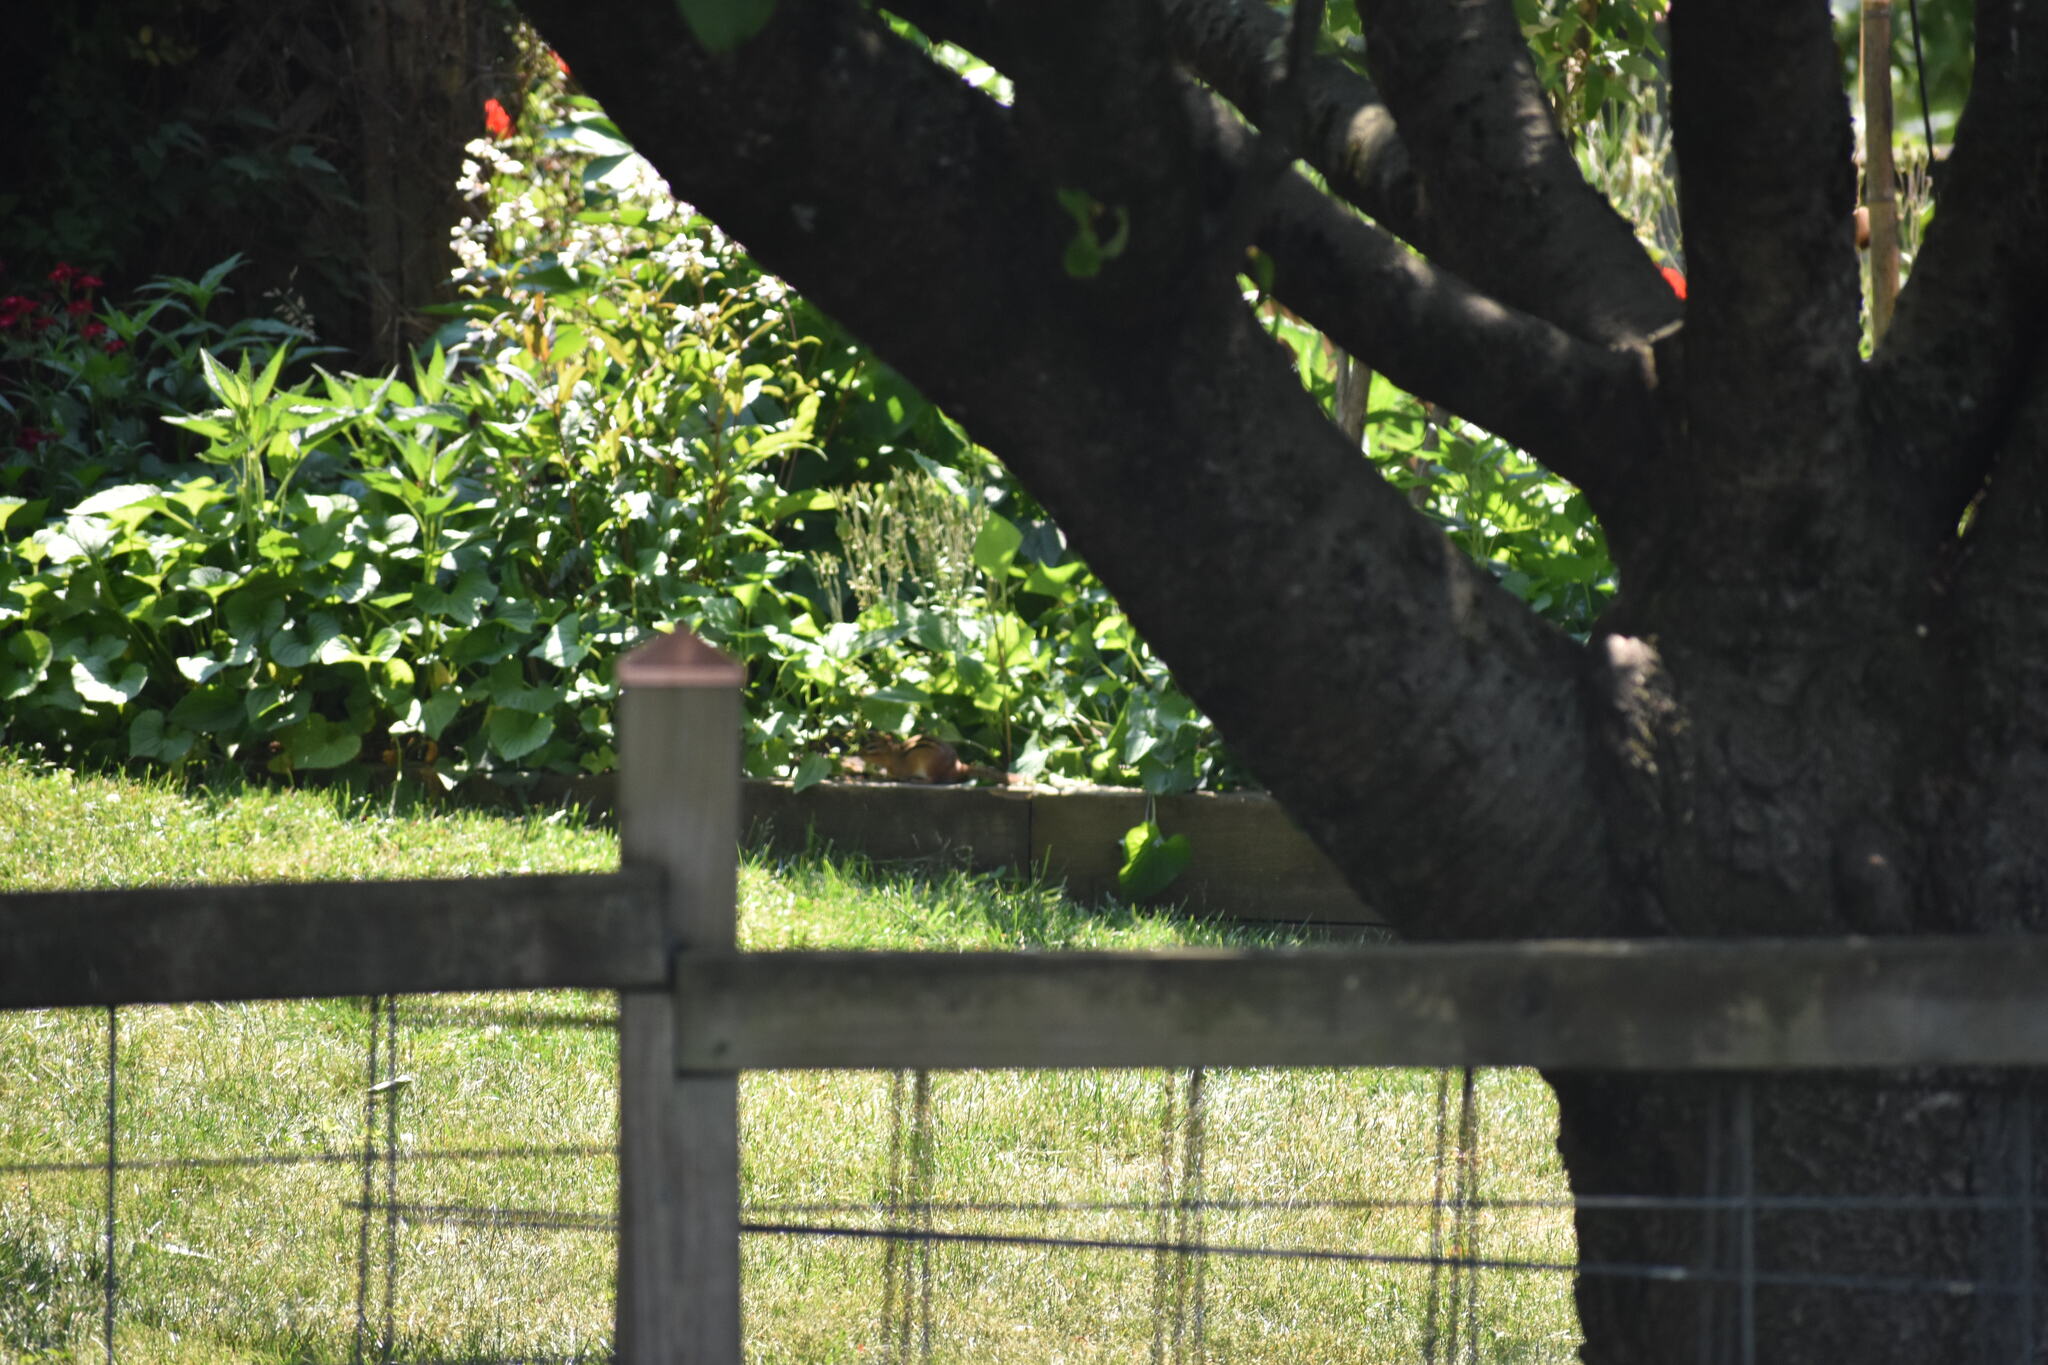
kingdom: Animalia
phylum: Chordata
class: Mammalia
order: Rodentia
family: Sciuridae
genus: Tamias
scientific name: Tamias striatus
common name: Eastern chipmunk
